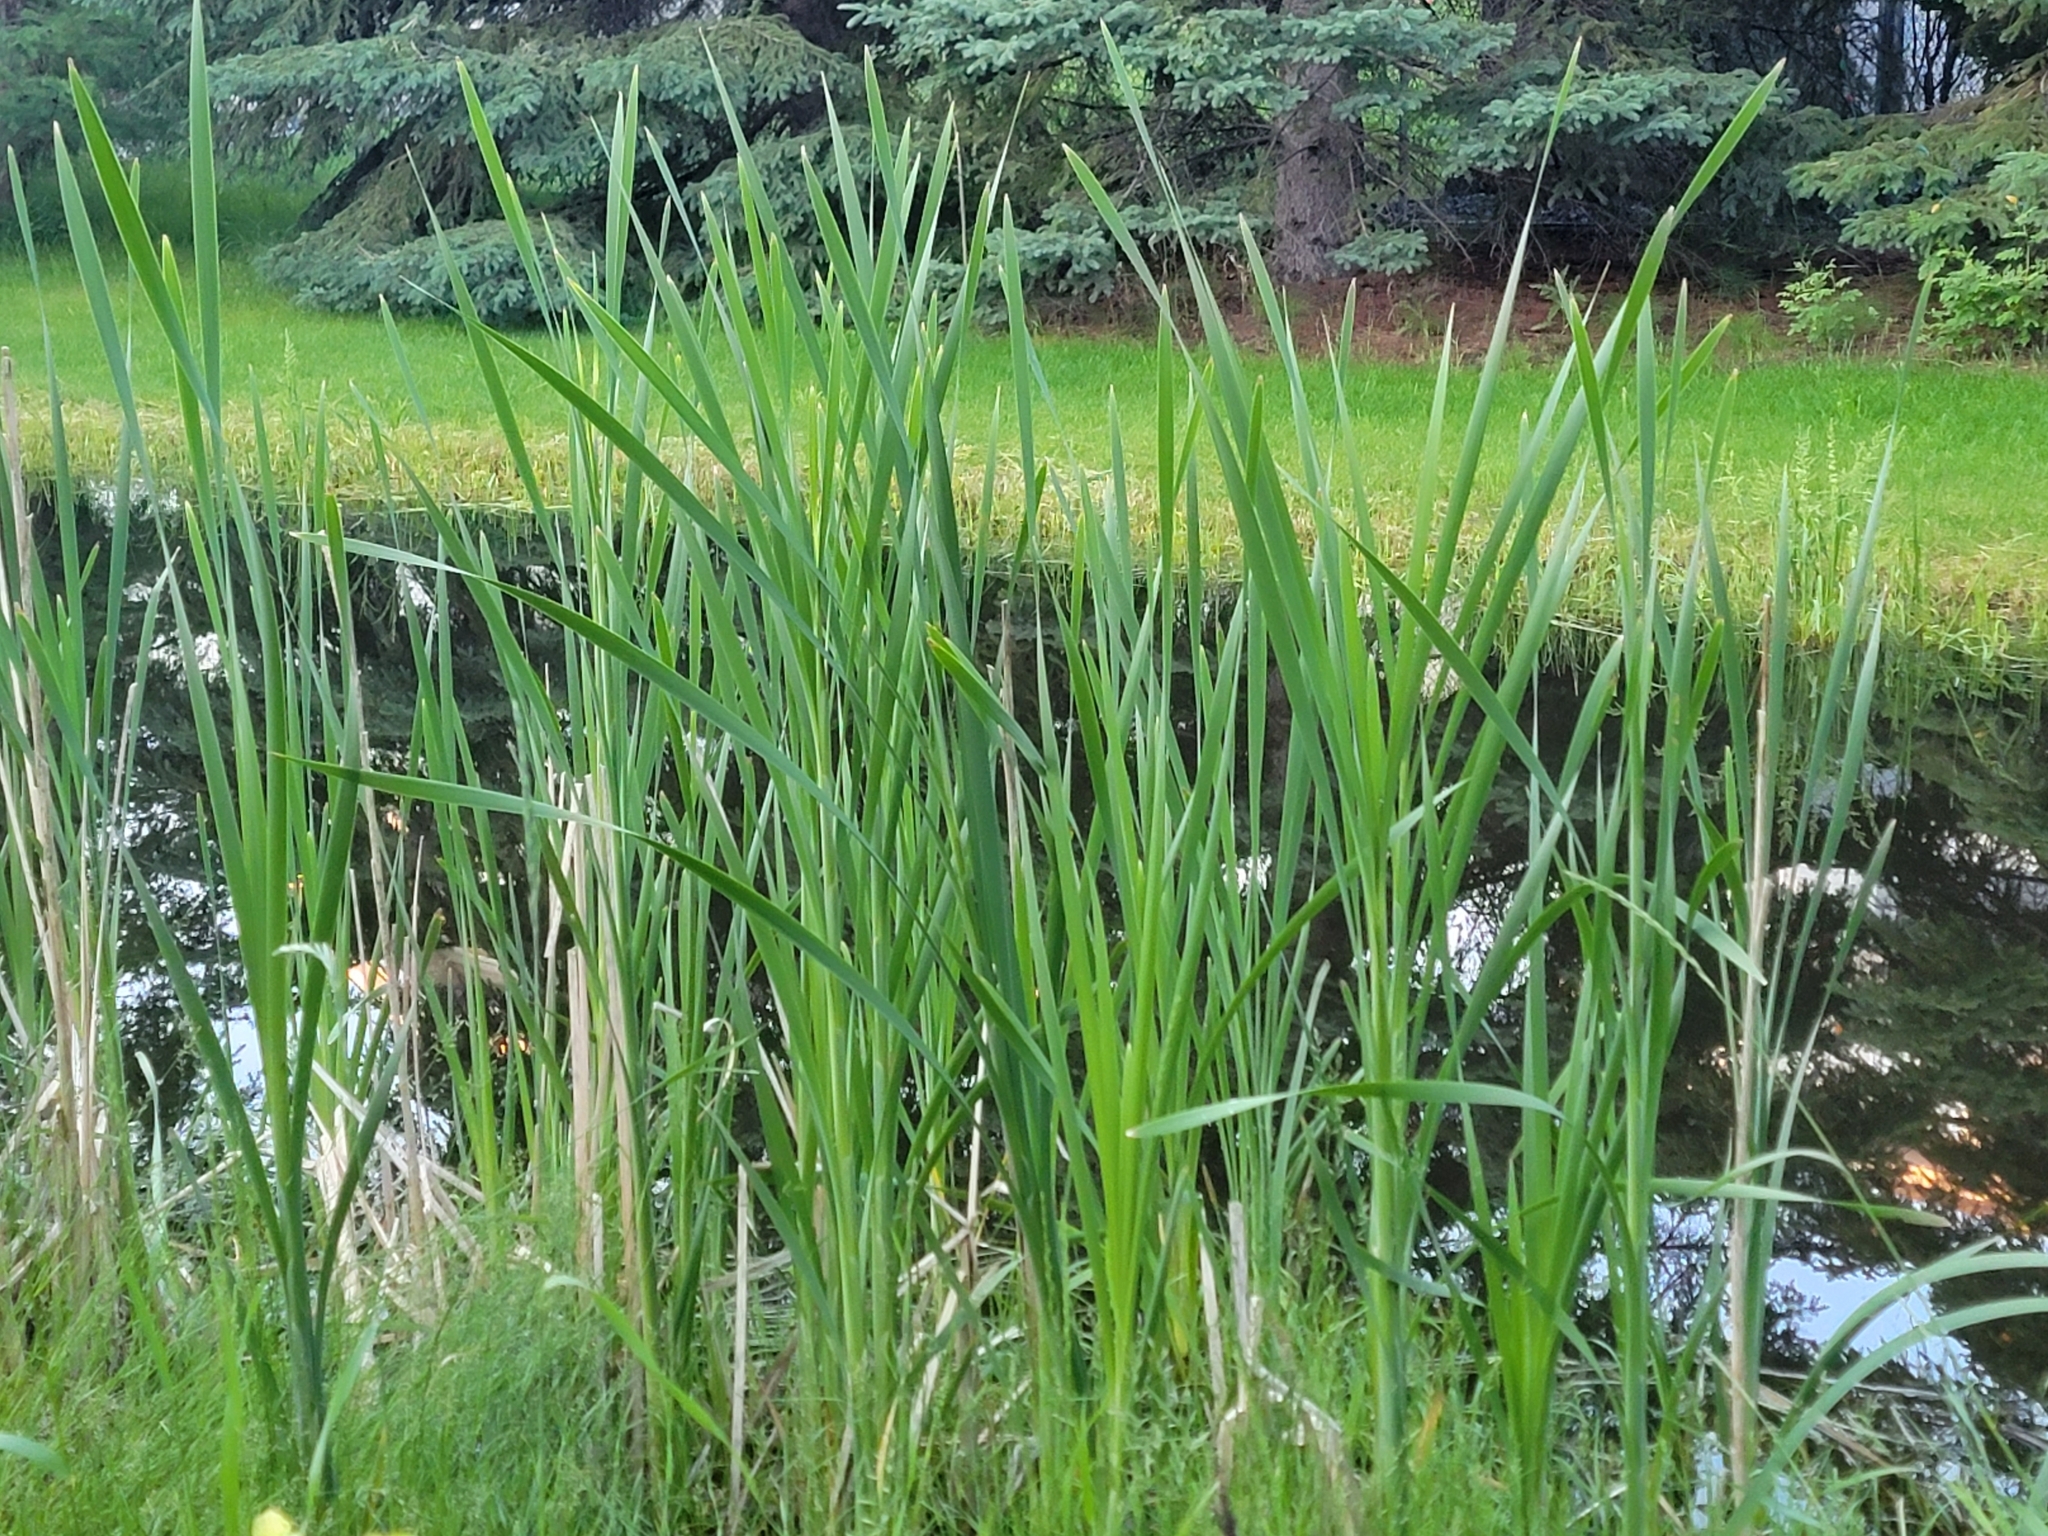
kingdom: Plantae
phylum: Tracheophyta
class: Liliopsida
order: Poales
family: Typhaceae
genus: Typha
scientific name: Typha latifolia
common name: Broadleaf cattail
